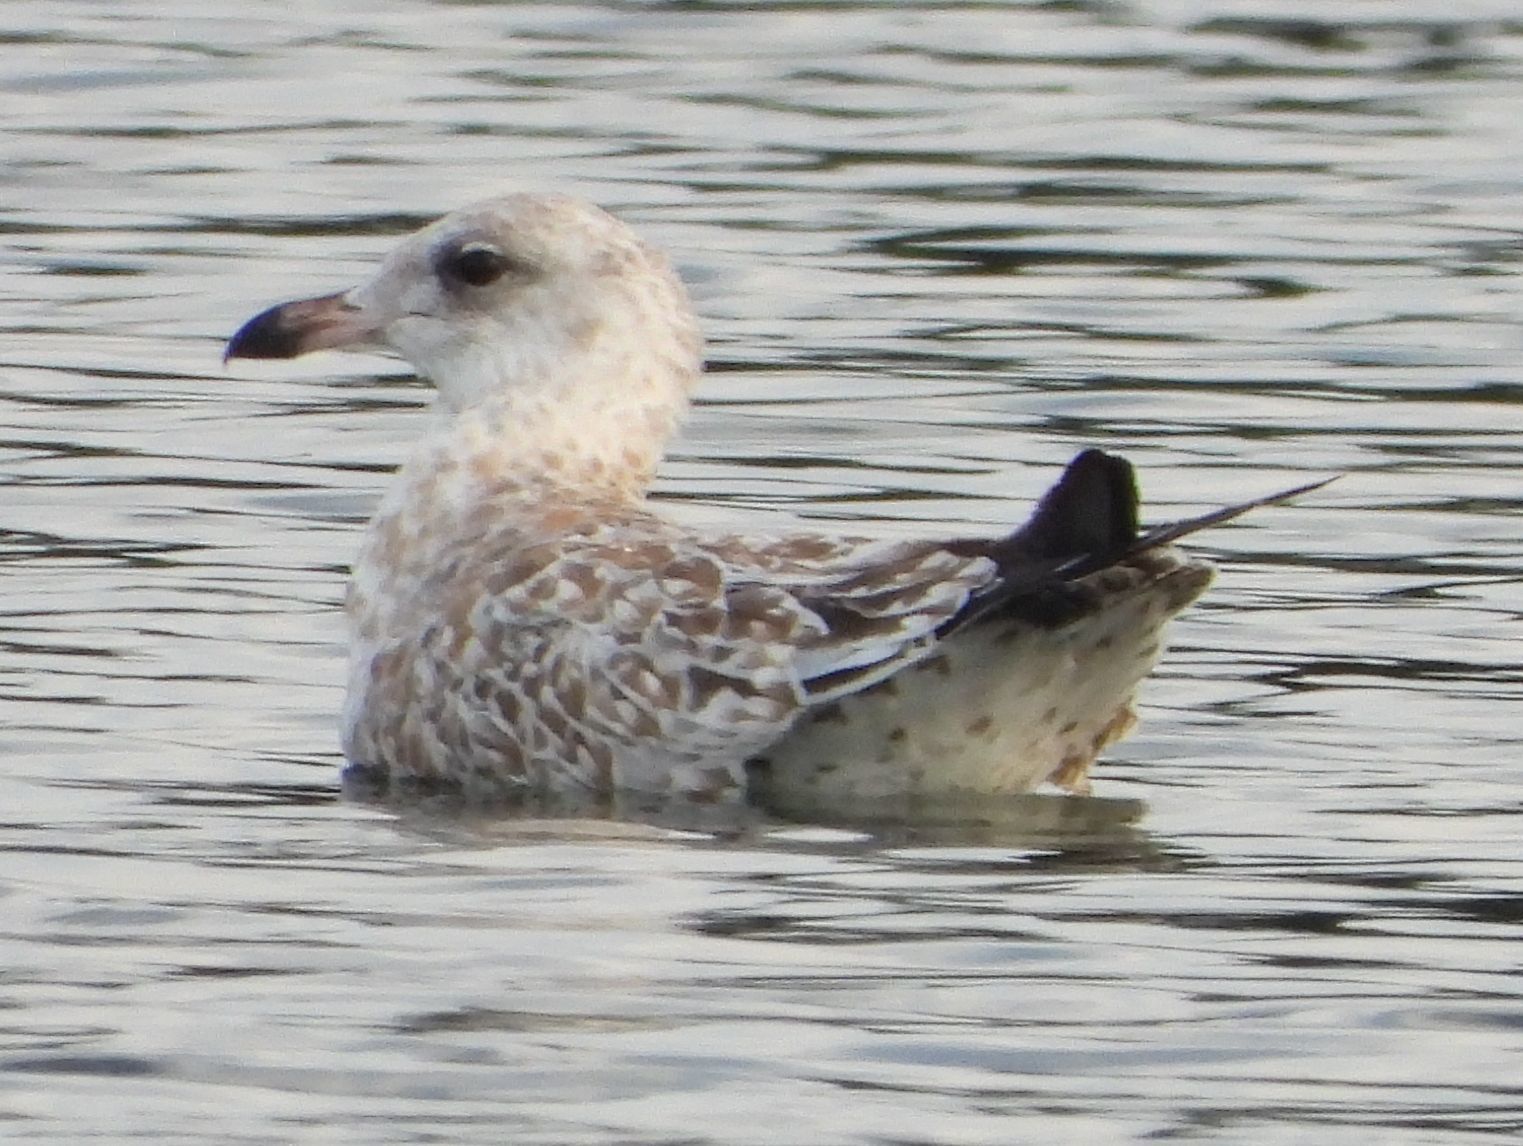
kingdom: Animalia
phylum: Chordata
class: Aves
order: Charadriiformes
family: Laridae
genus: Larus
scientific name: Larus delawarensis
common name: Ring-billed gull
